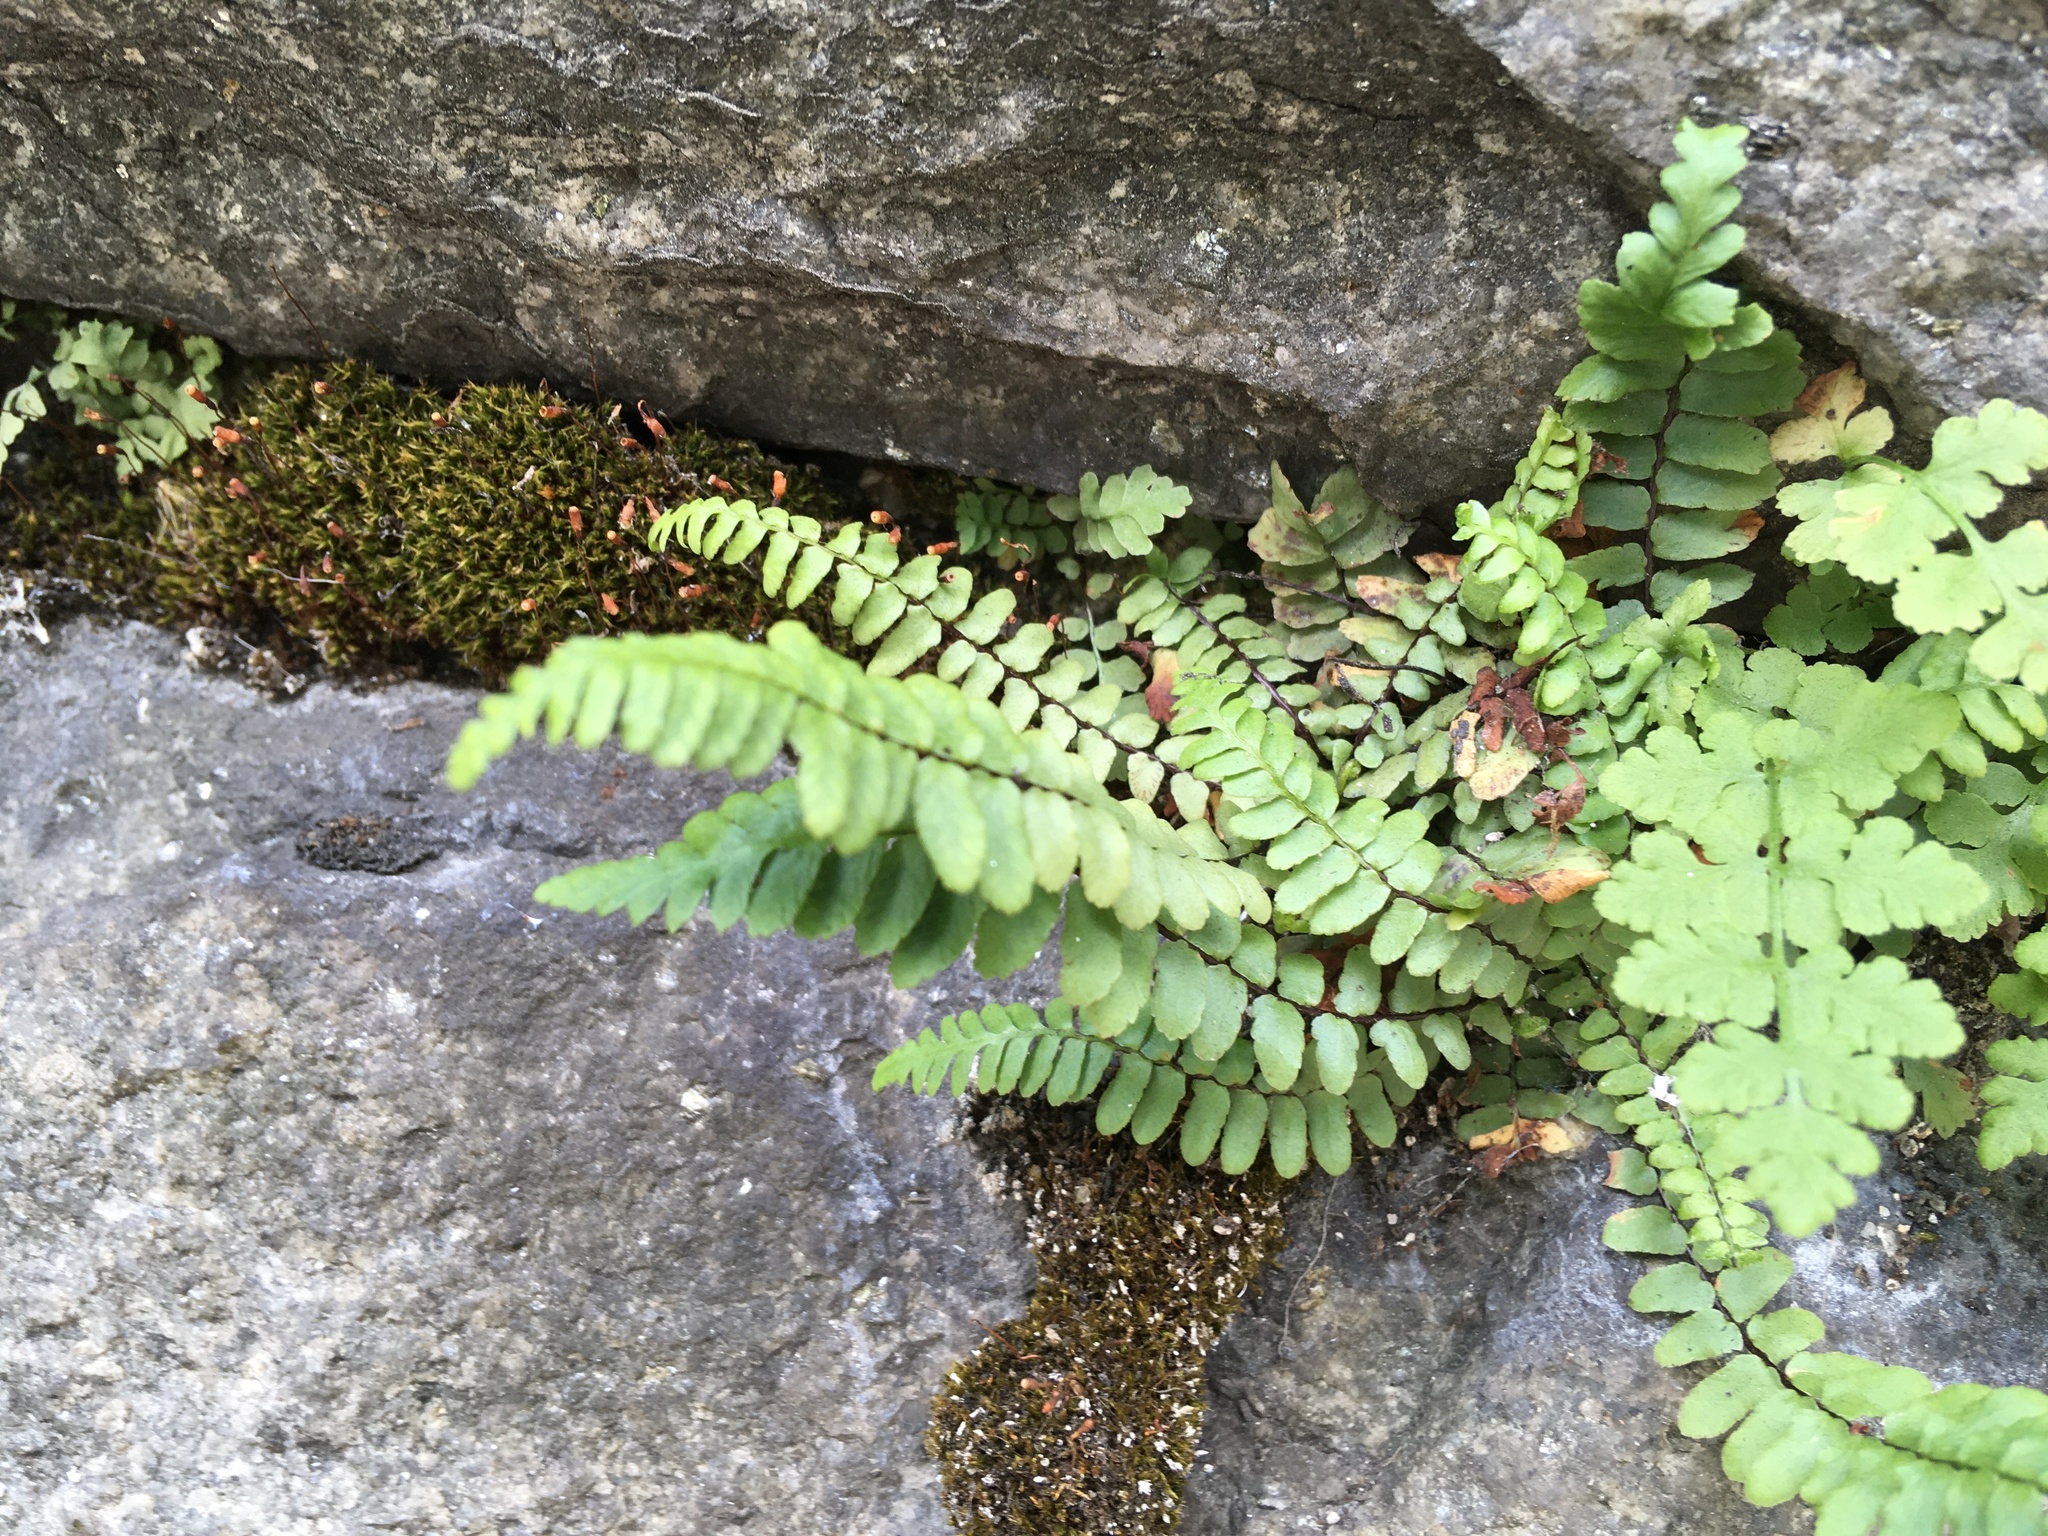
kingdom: Plantae
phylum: Tracheophyta
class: Polypodiopsida
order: Polypodiales
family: Aspleniaceae
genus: Asplenium
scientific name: Asplenium platyneuron
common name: Ebony spleenwort
